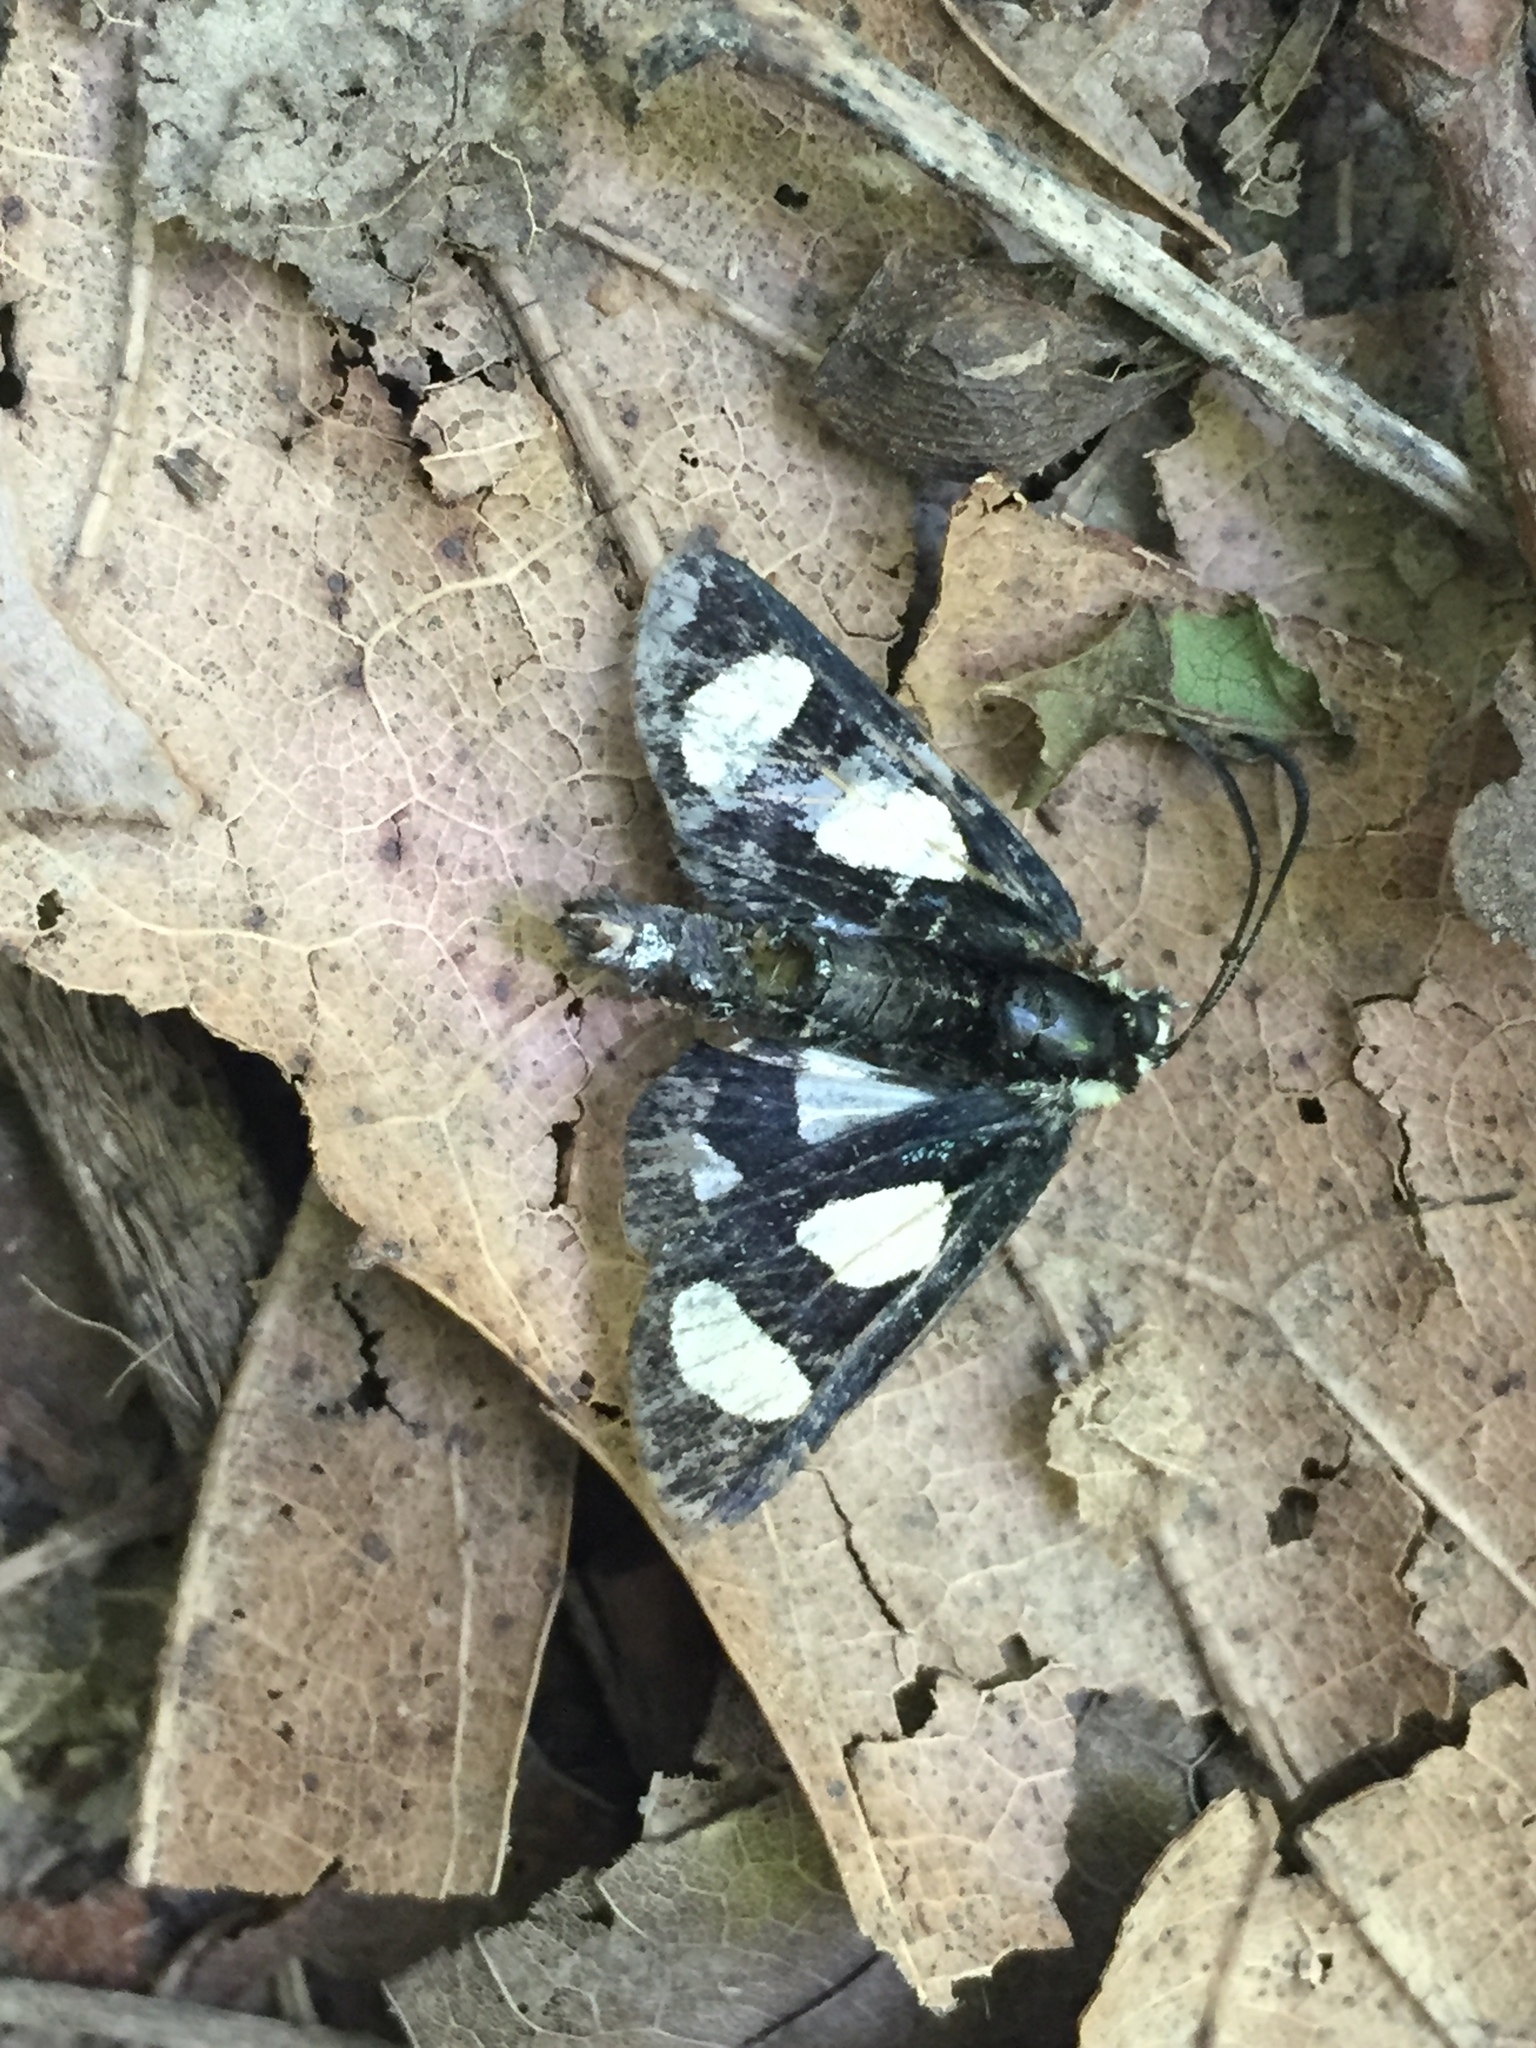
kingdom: Animalia
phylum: Arthropoda
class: Insecta
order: Lepidoptera
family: Noctuidae
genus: Alypia
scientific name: Alypia octomaculata
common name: Eight-spotted forester
